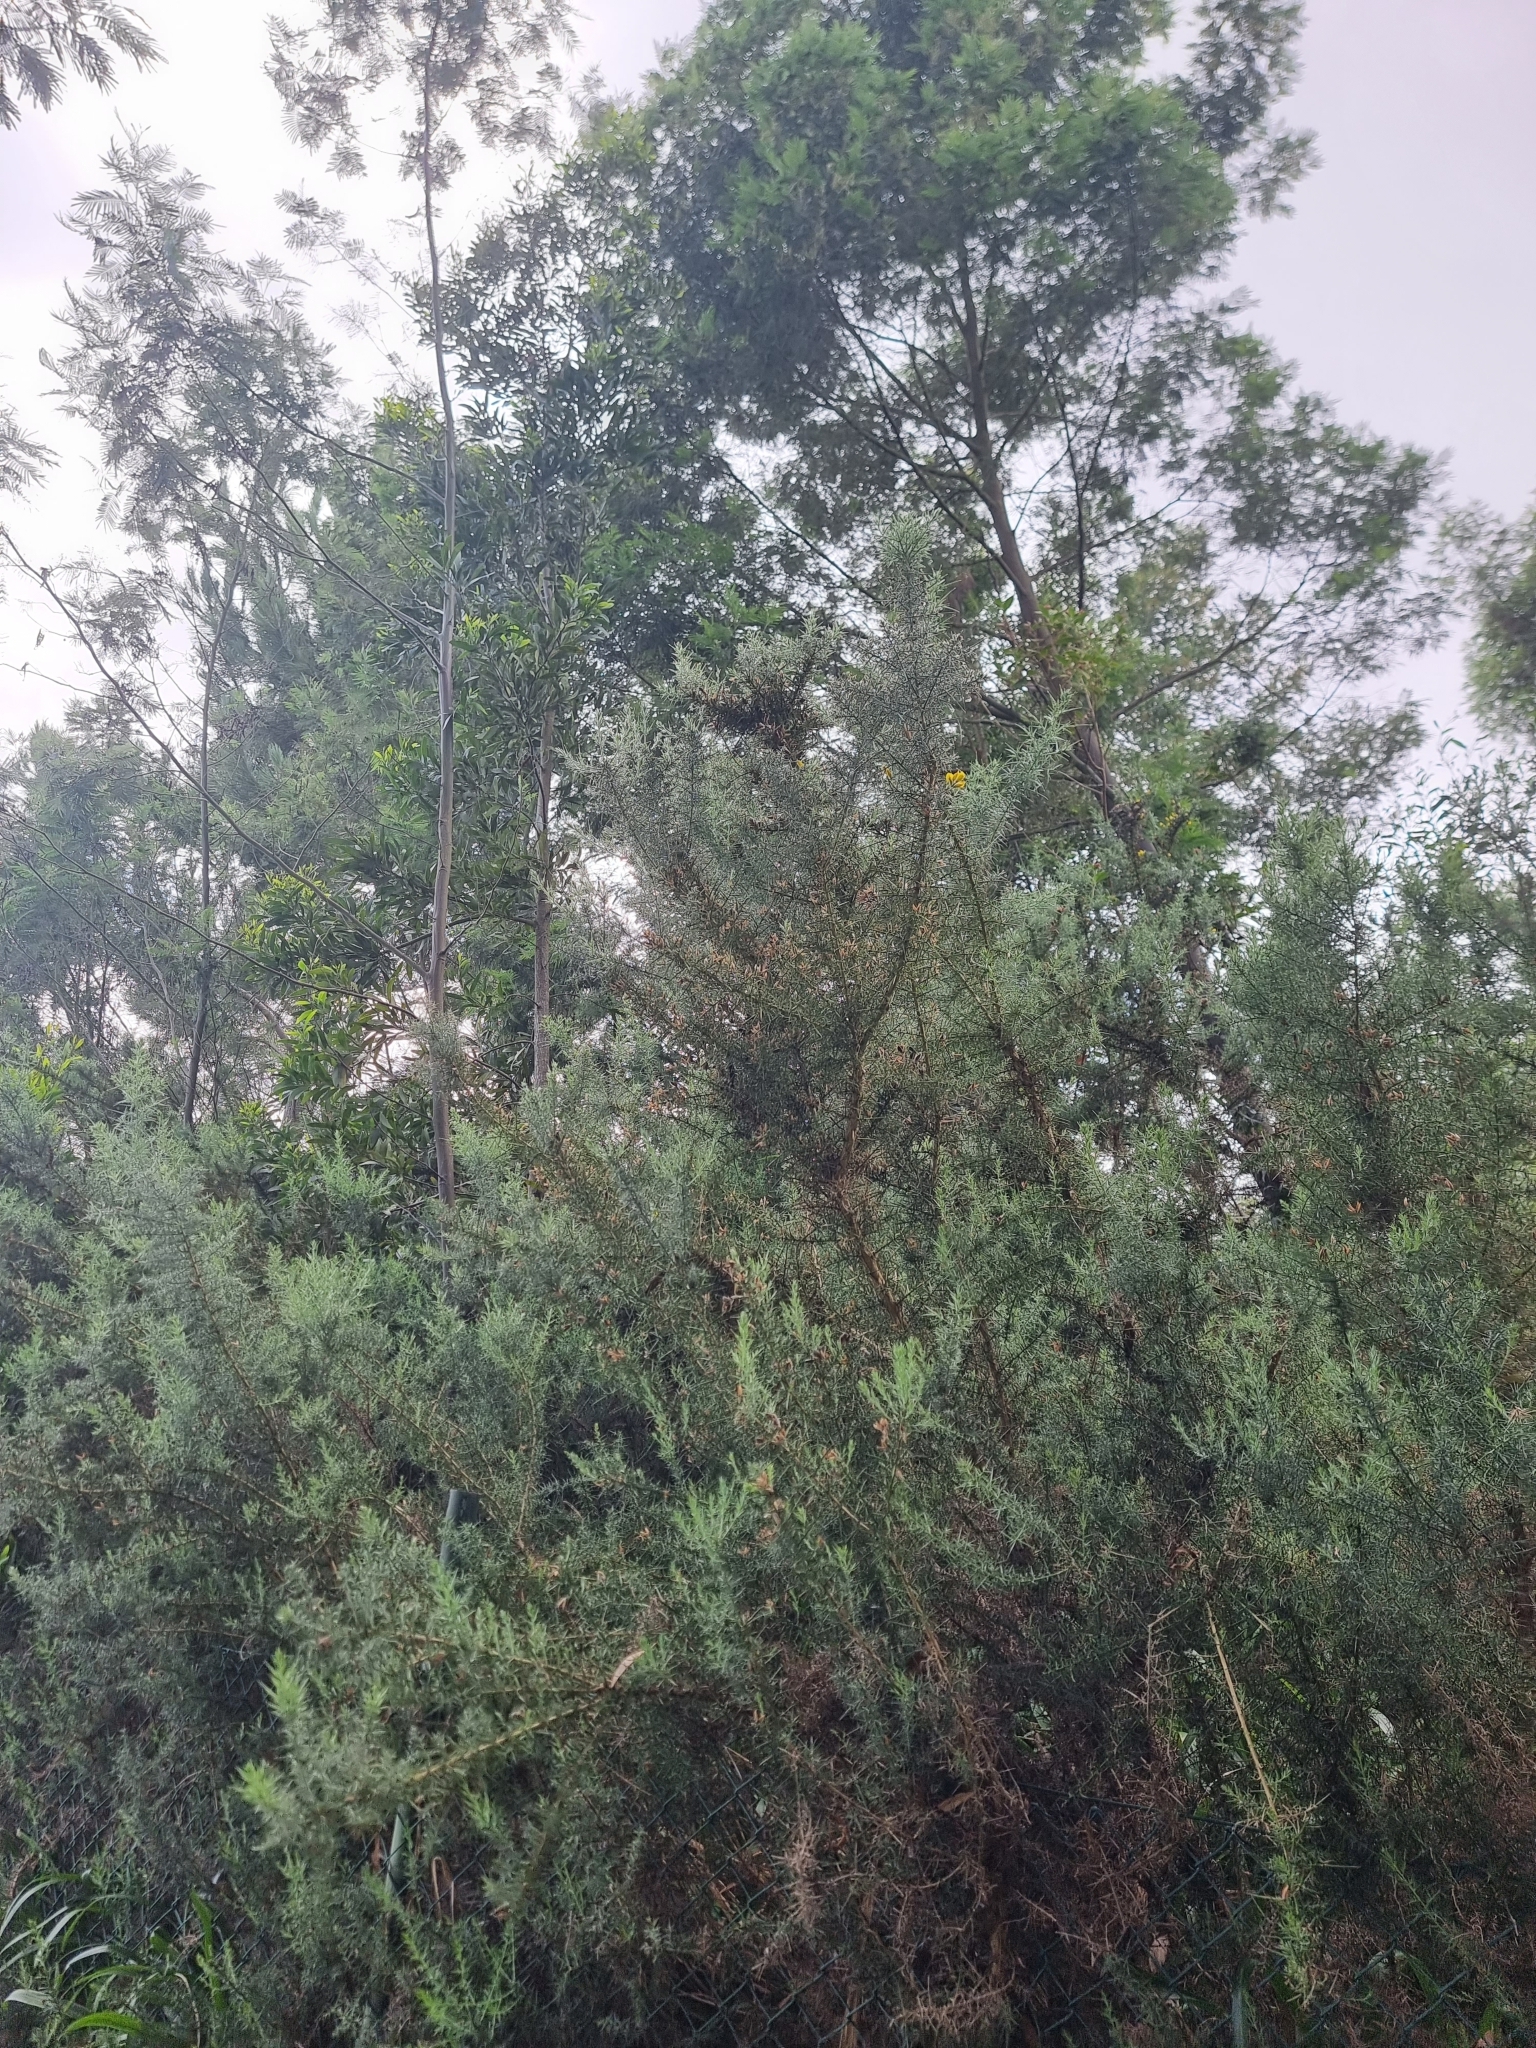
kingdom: Plantae
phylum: Tracheophyta
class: Magnoliopsida
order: Fabales
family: Fabaceae
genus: Ulex
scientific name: Ulex europaeus
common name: Common gorse
